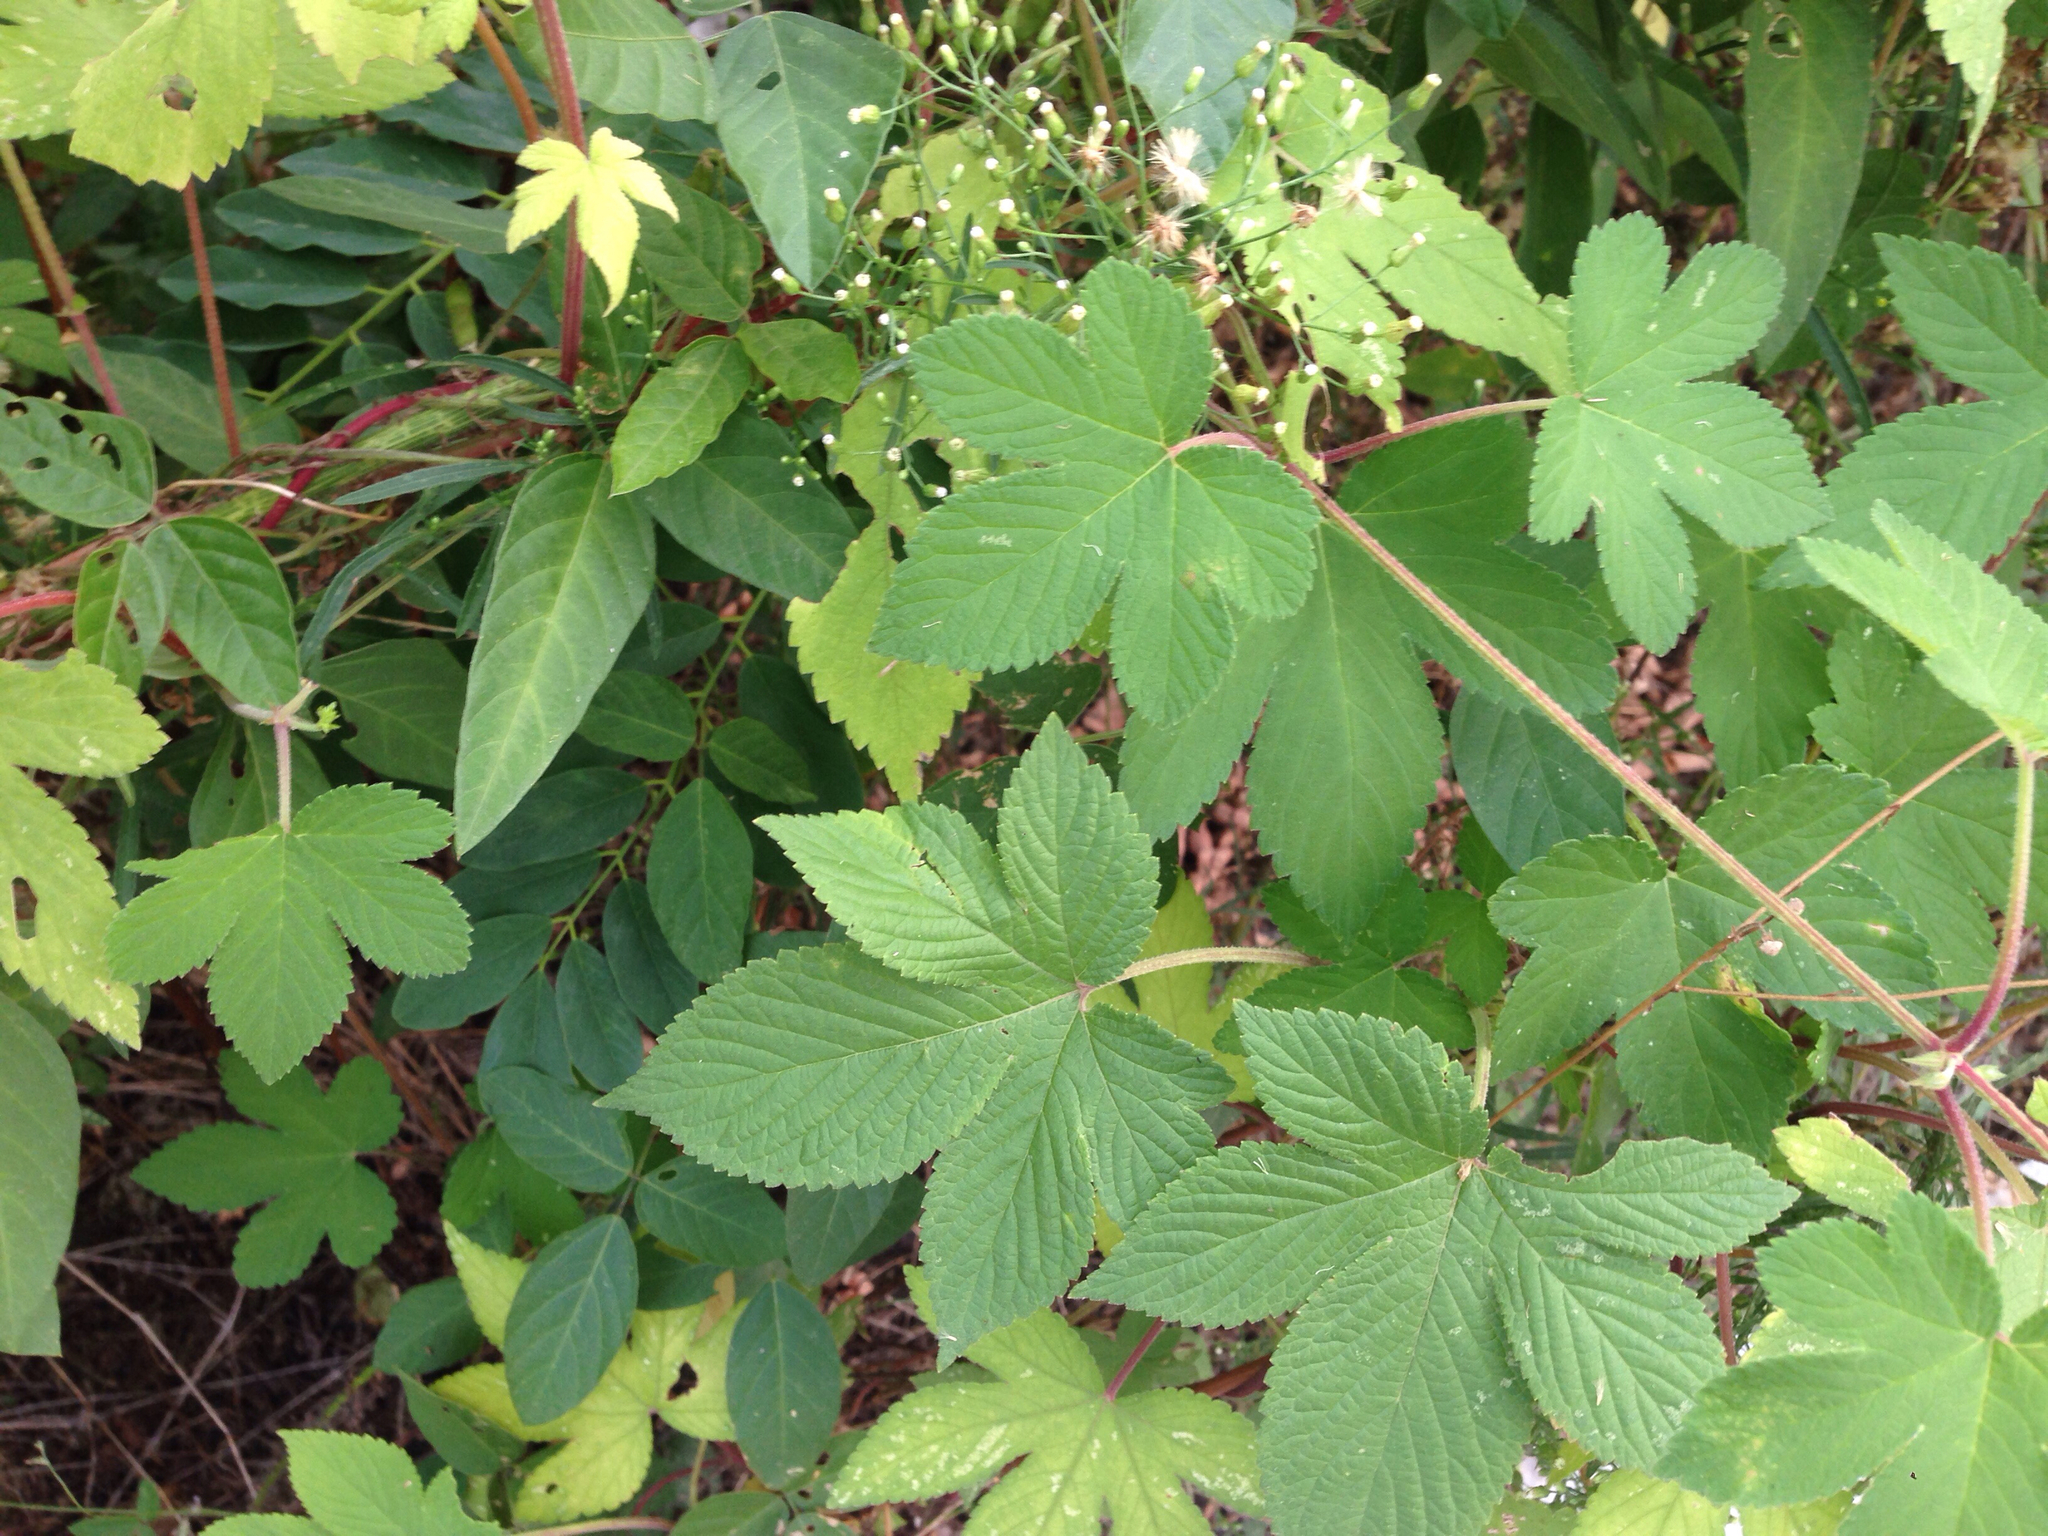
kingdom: Plantae
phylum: Tracheophyta
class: Magnoliopsida
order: Rosales
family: Cannabaceae
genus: Humulus
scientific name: Humulus scandens
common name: Japanese hop
